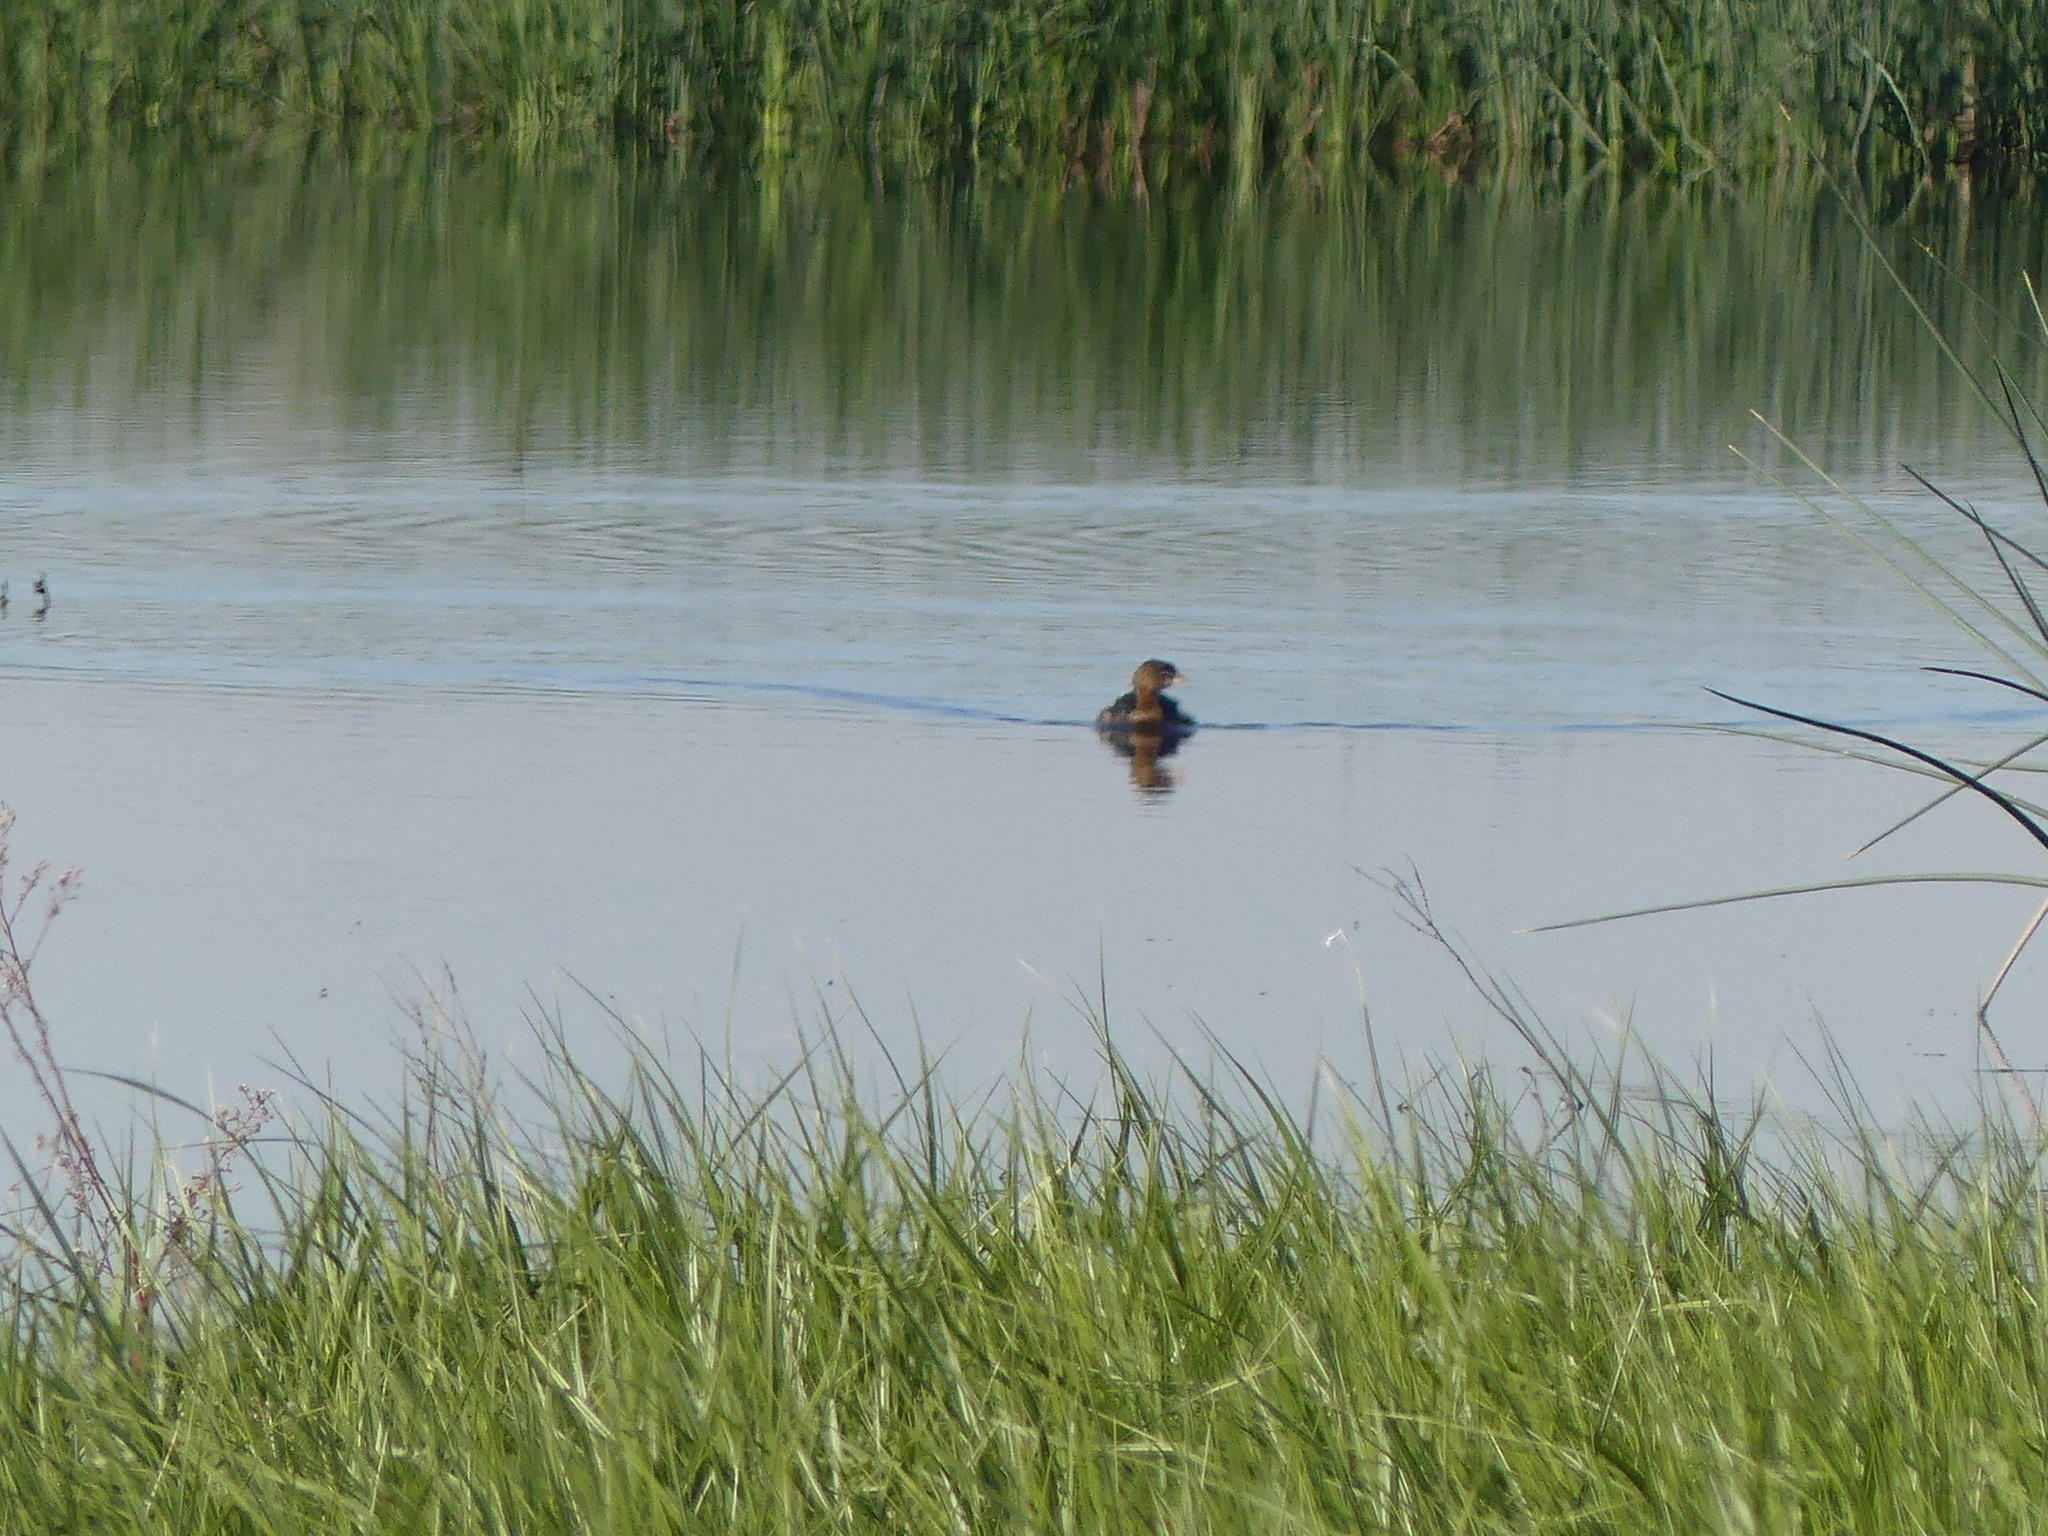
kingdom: Animalia
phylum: Chordata
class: Aves
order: Podicipediformes
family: Podicipedidae
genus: Podilymbus
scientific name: Podilymbus podiceps
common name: Pied-billed grebe
